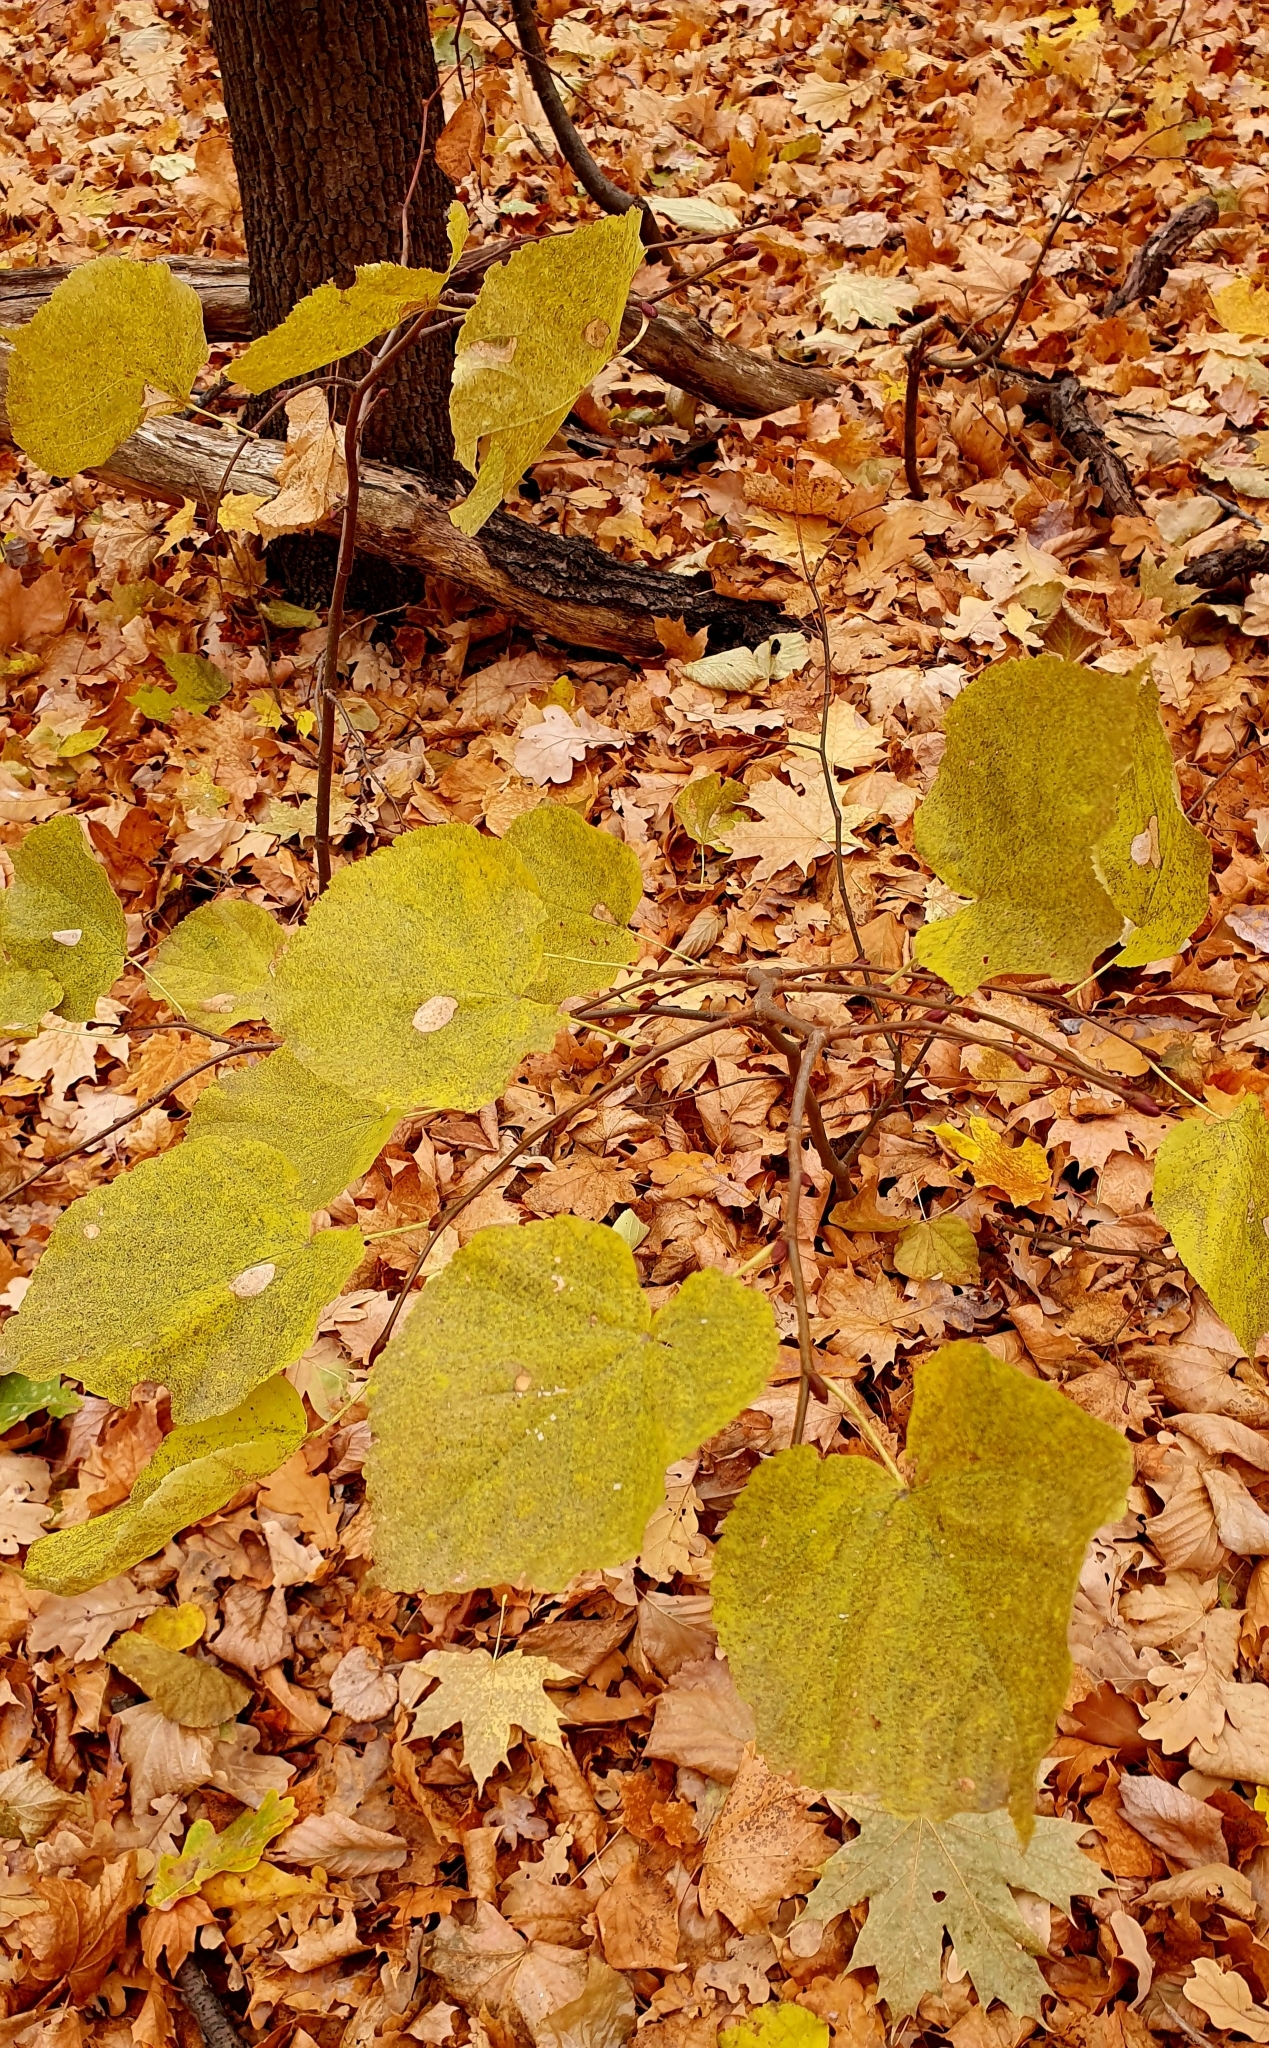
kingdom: Plantae
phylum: Tracheophyta
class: Magnoliopsida
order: Malvales
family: Malvaceae
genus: Tilia
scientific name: Tilia cordata
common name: Small-leaved lime
